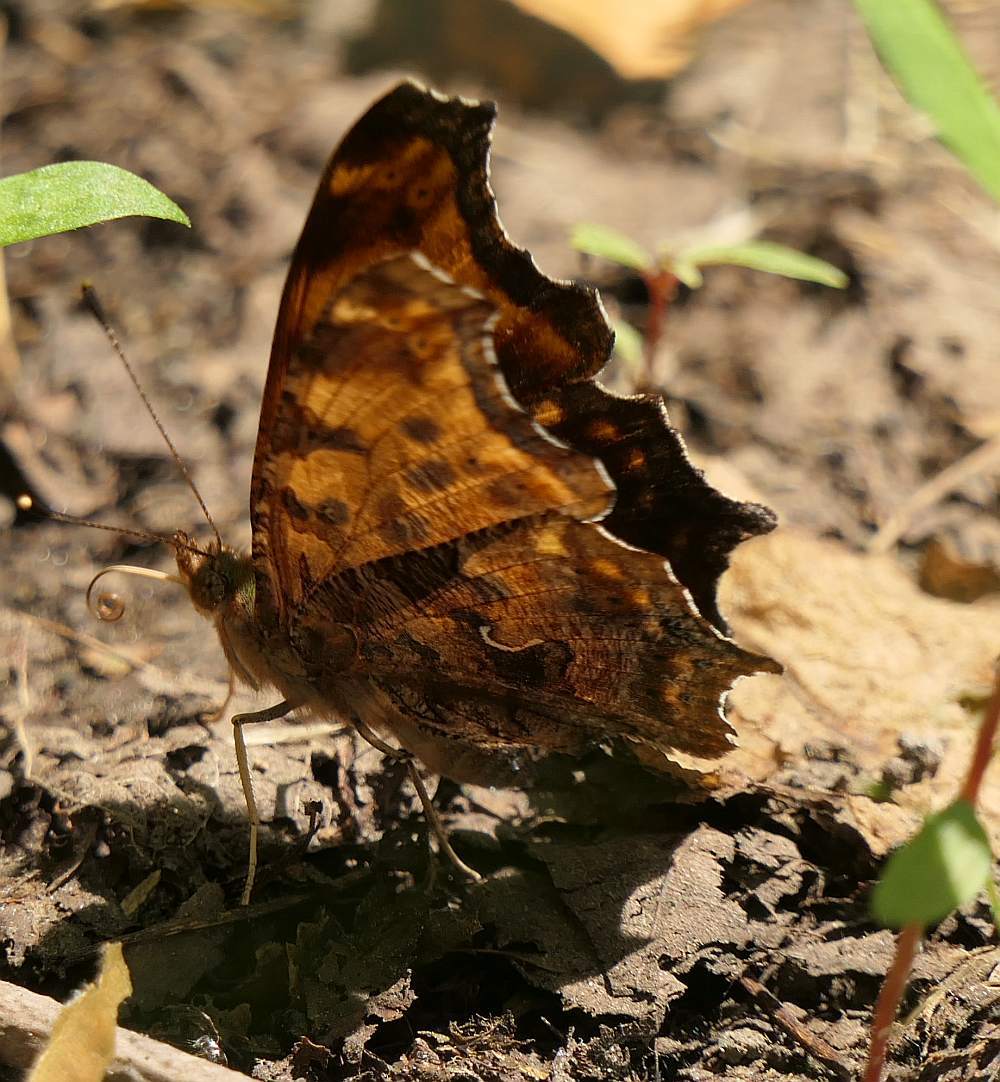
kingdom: Animalia
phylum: Arthropoda
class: Insecta
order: Lepidoptera
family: Nymphalidae
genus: Polygonia
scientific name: Polygonia comma
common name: Eastern comma
